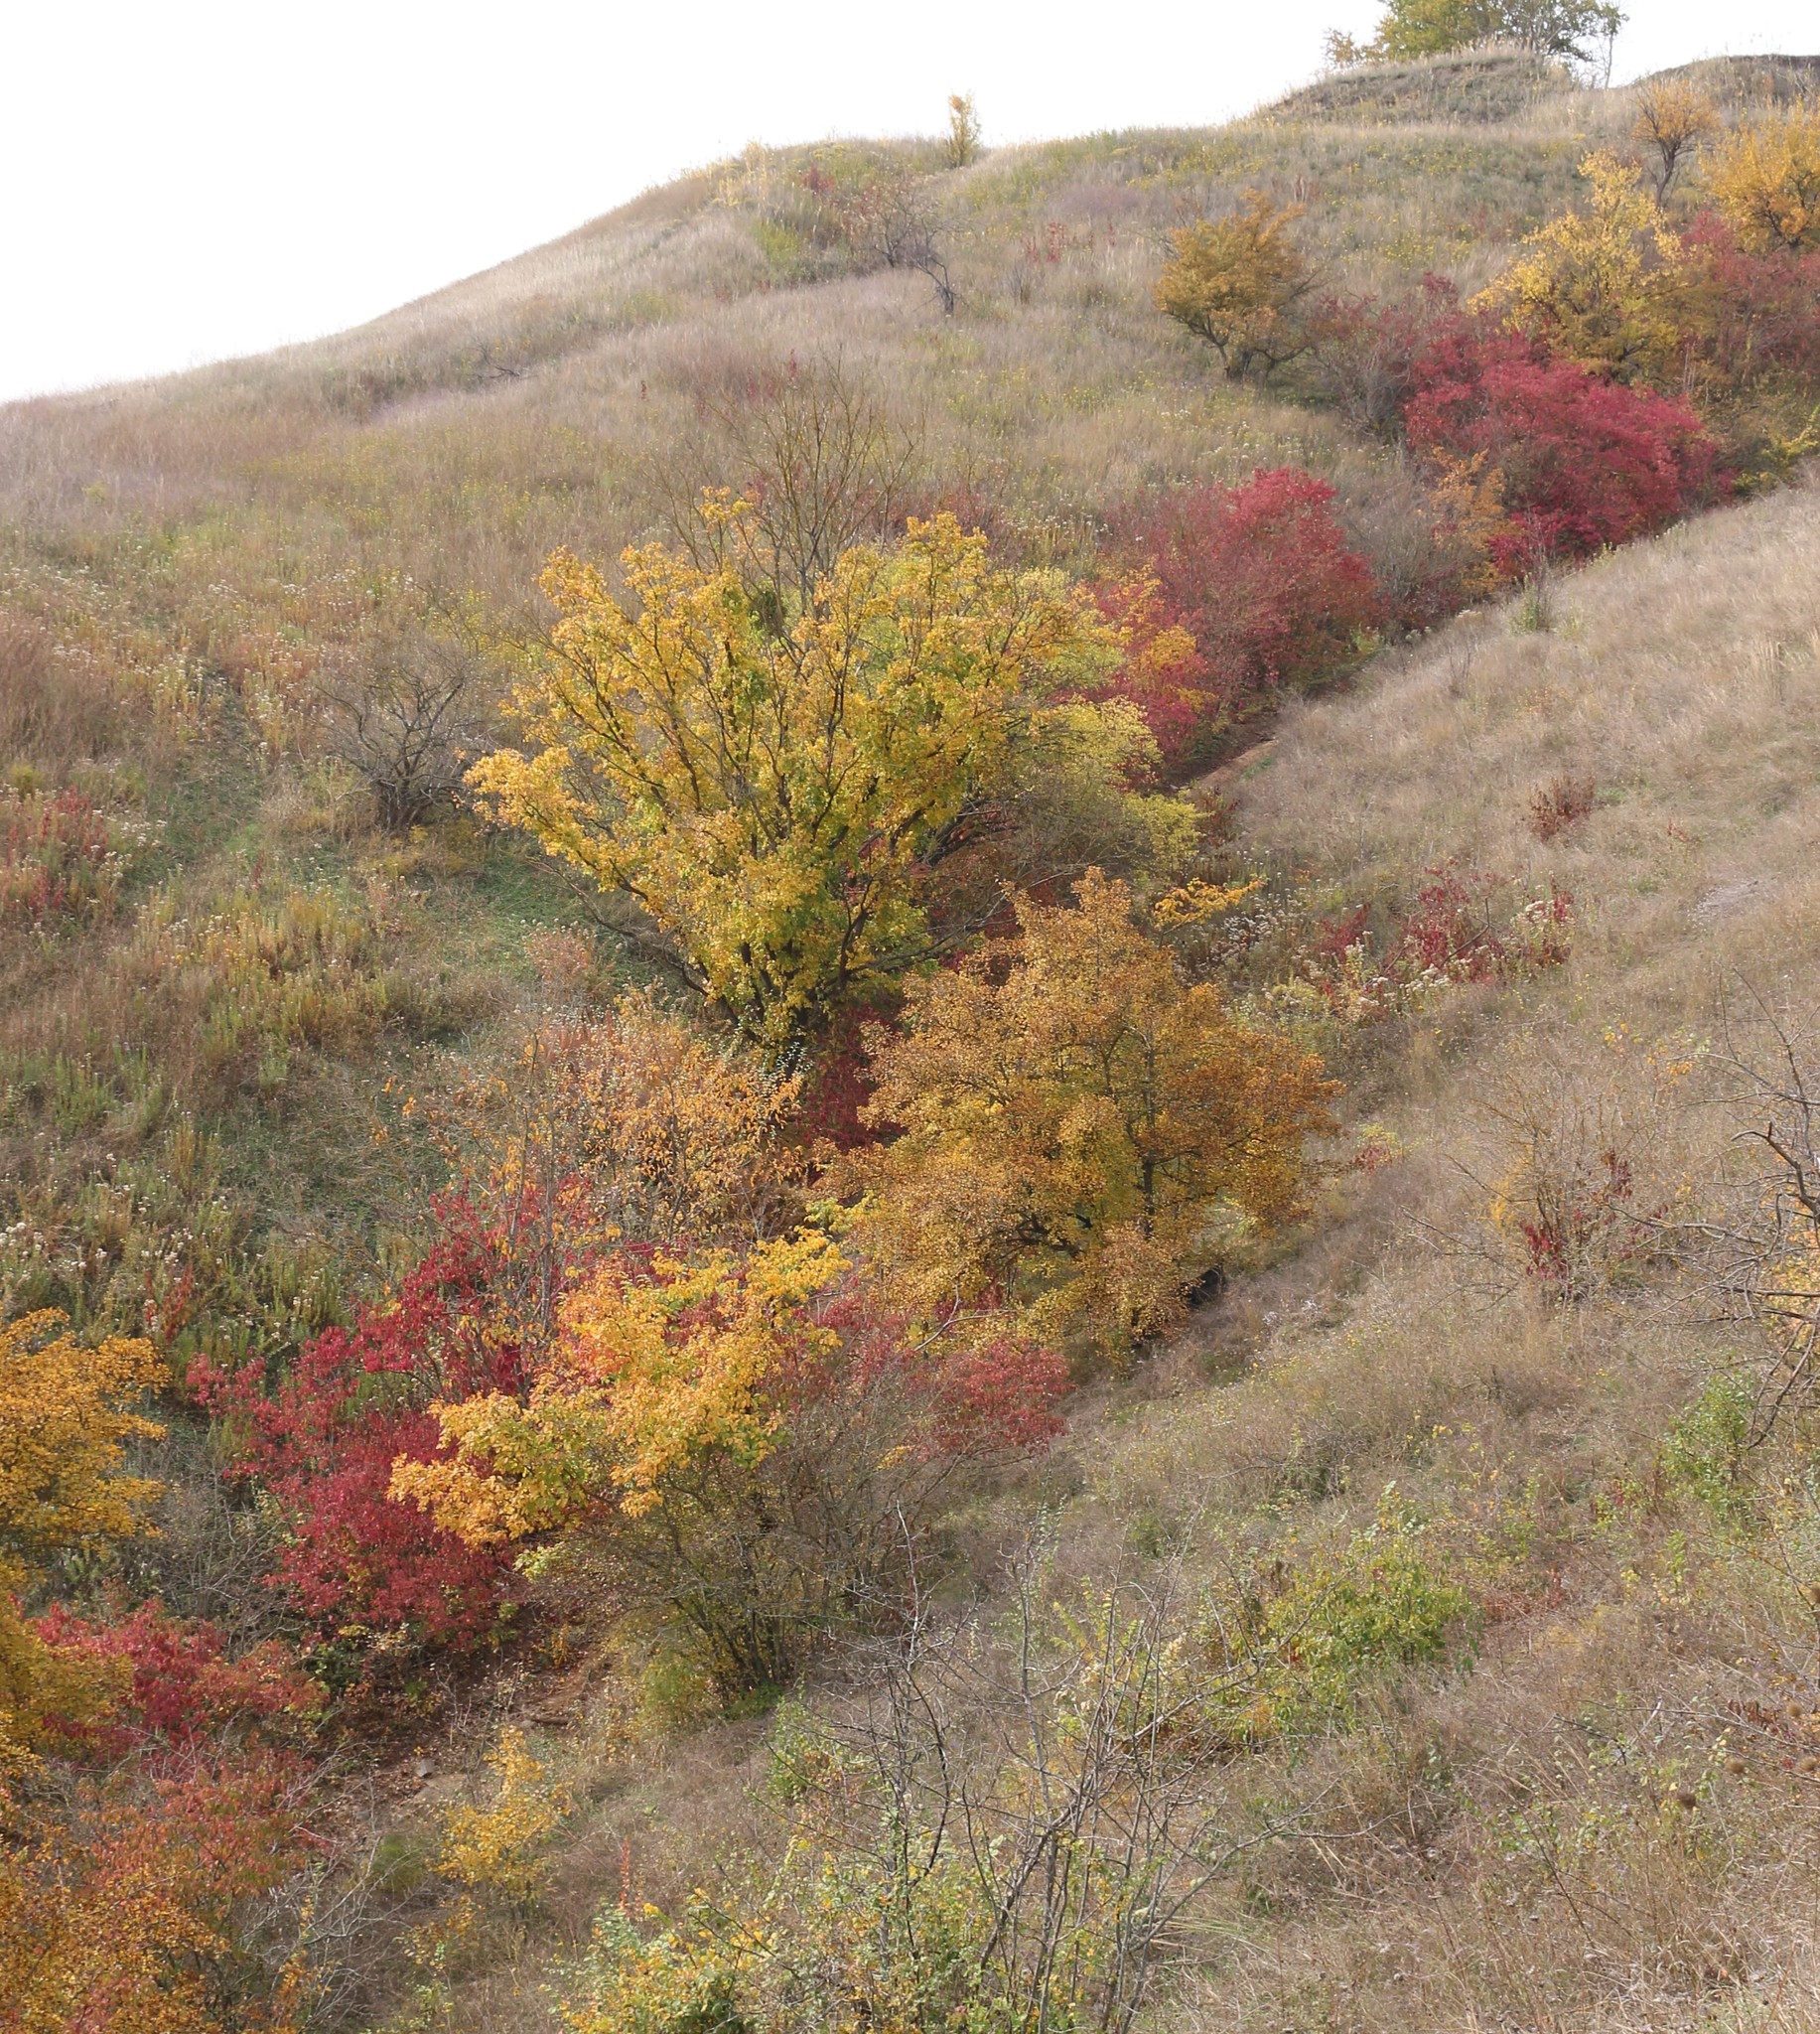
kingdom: Plantae
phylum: Tracheophyta
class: Magnoliopsida
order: Cornales
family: Cornaceae
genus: Cornus
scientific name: Cornus sanguinea
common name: Dogwood
